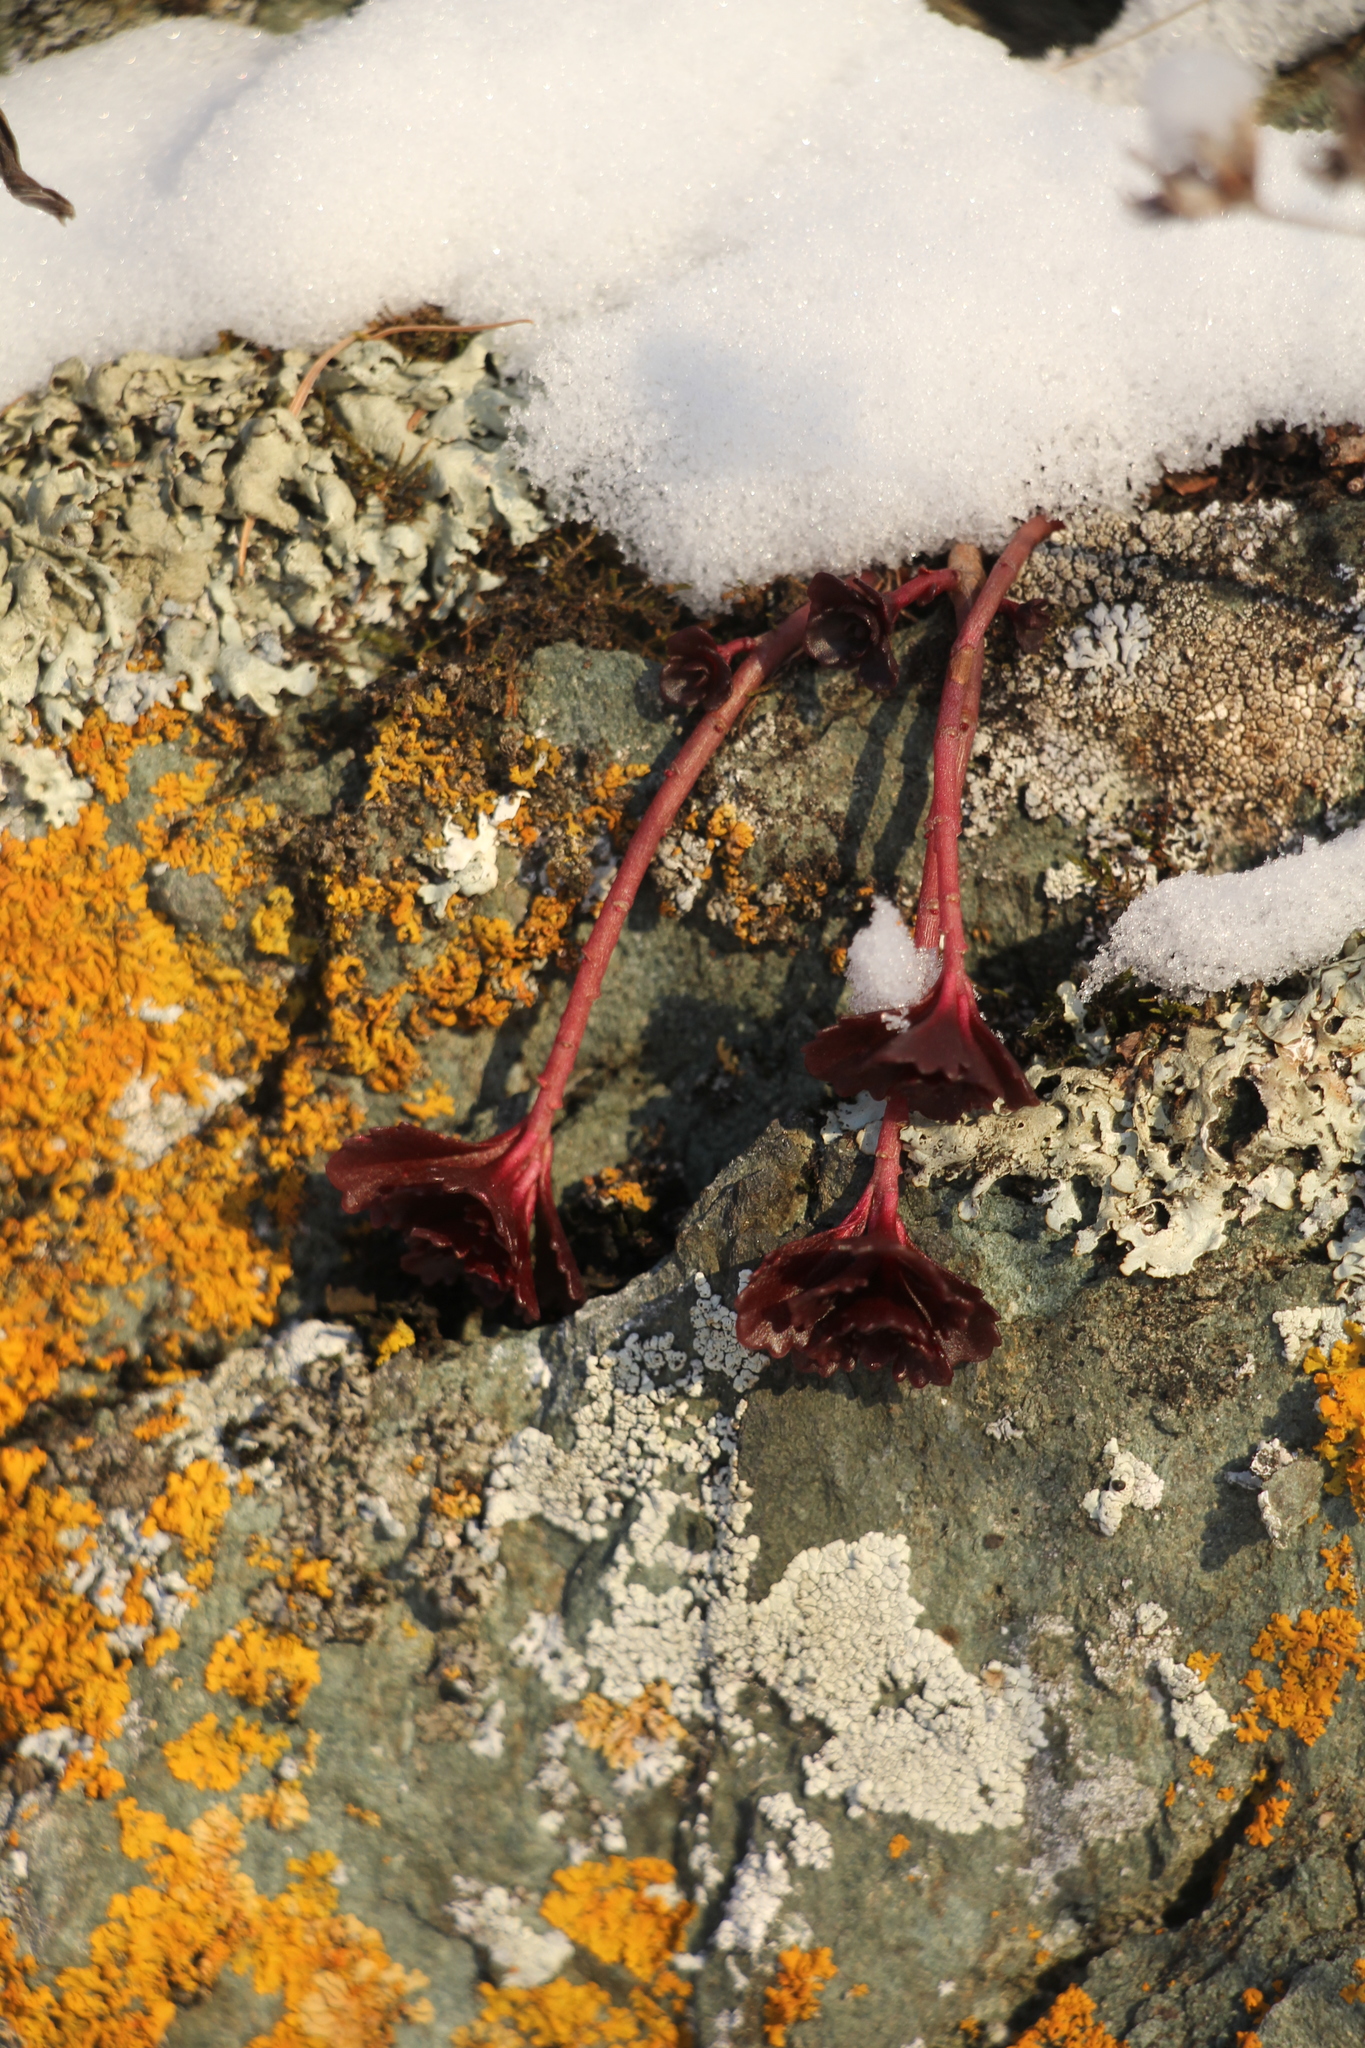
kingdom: Plantae
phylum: Tracheophyta
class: Magnoliopsida
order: Saxifragales
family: Crassulaceae
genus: Phedimus
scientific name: Phedimus hybridus
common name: Hybrid stonecrop
